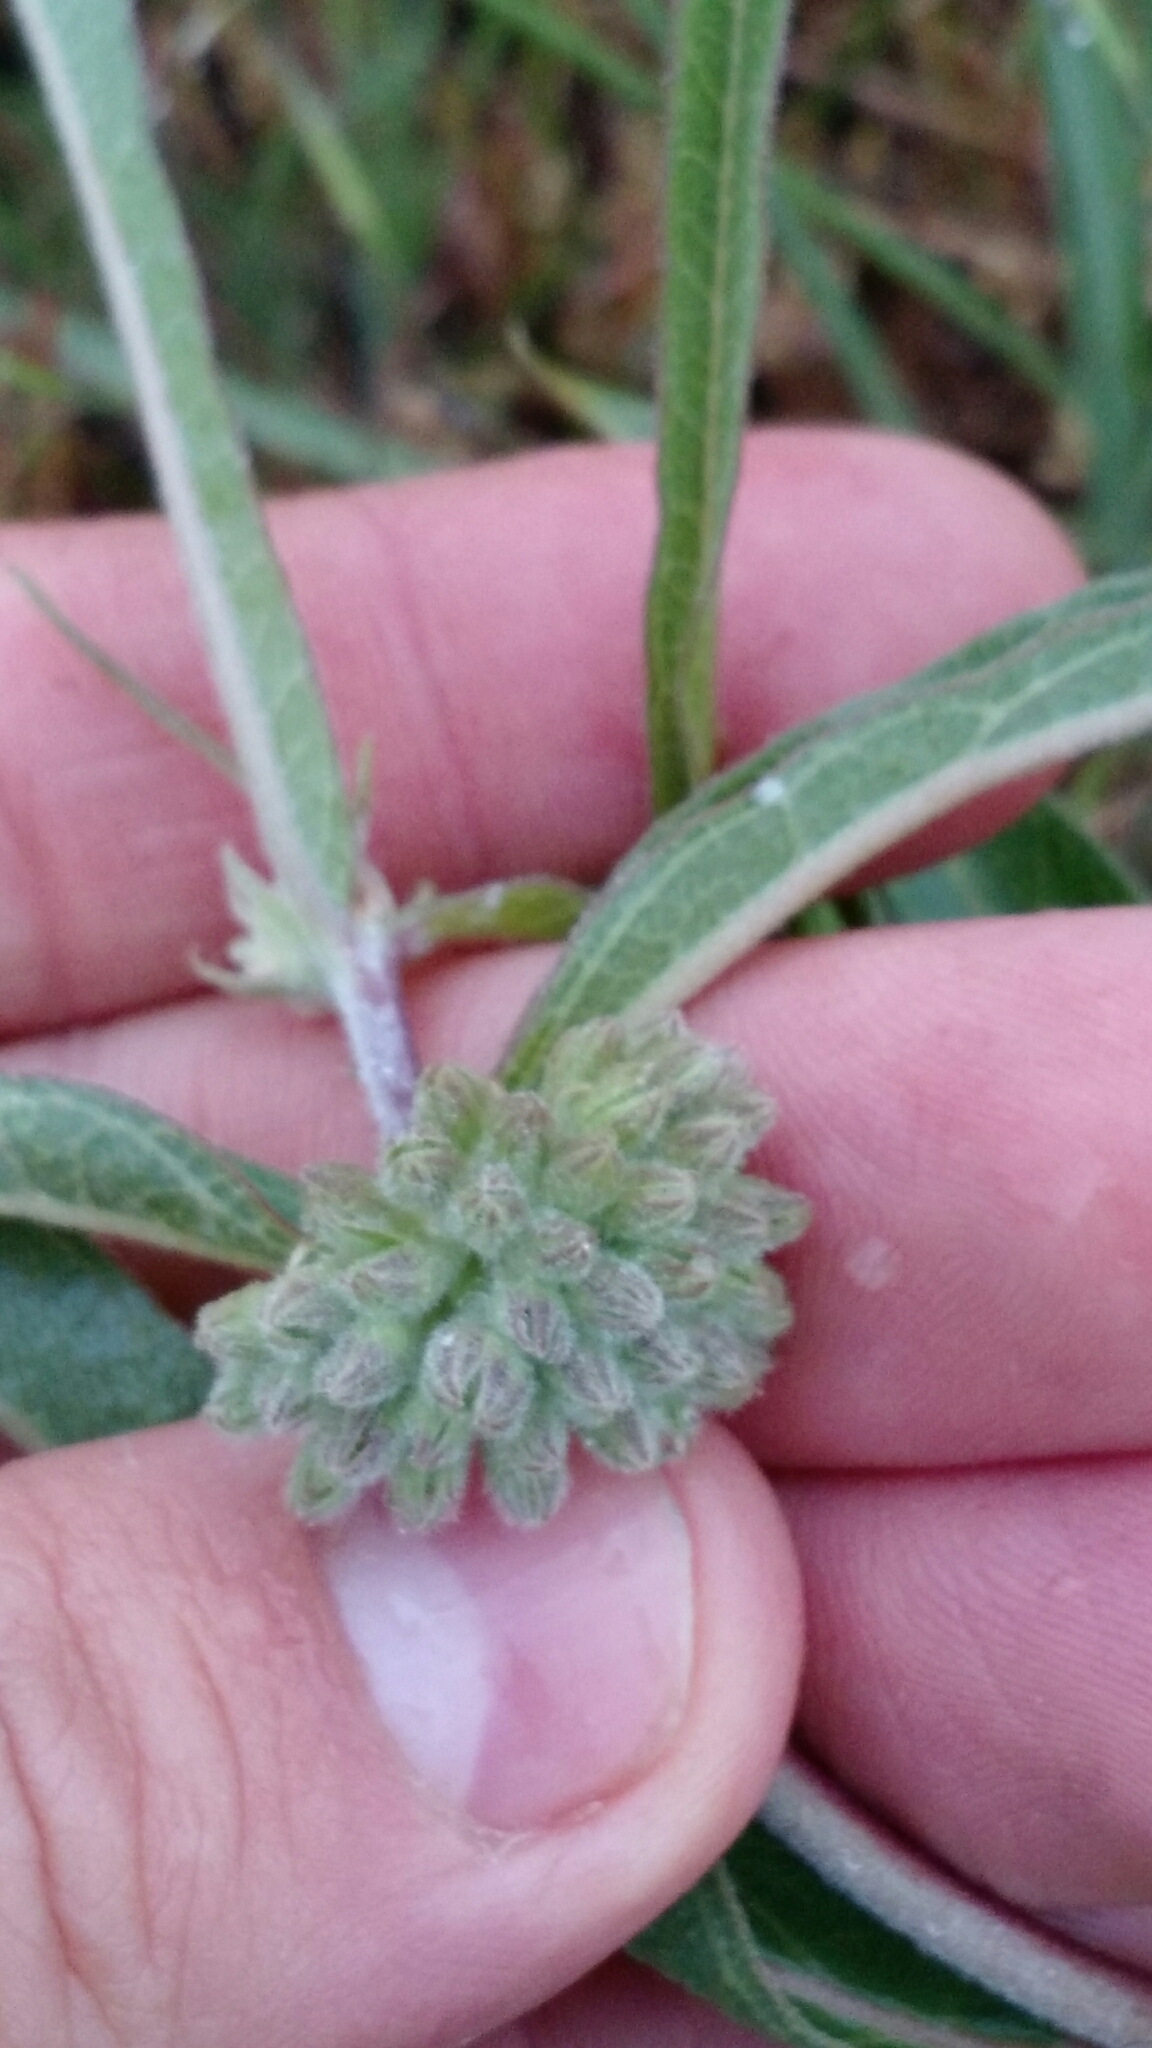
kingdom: Plantae
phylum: Tracheophyta
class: Magnoliopsida
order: Gentianales
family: Apocynaceae
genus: Asclepias
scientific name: Asclepias viridiflora
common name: Green comet milkweed
